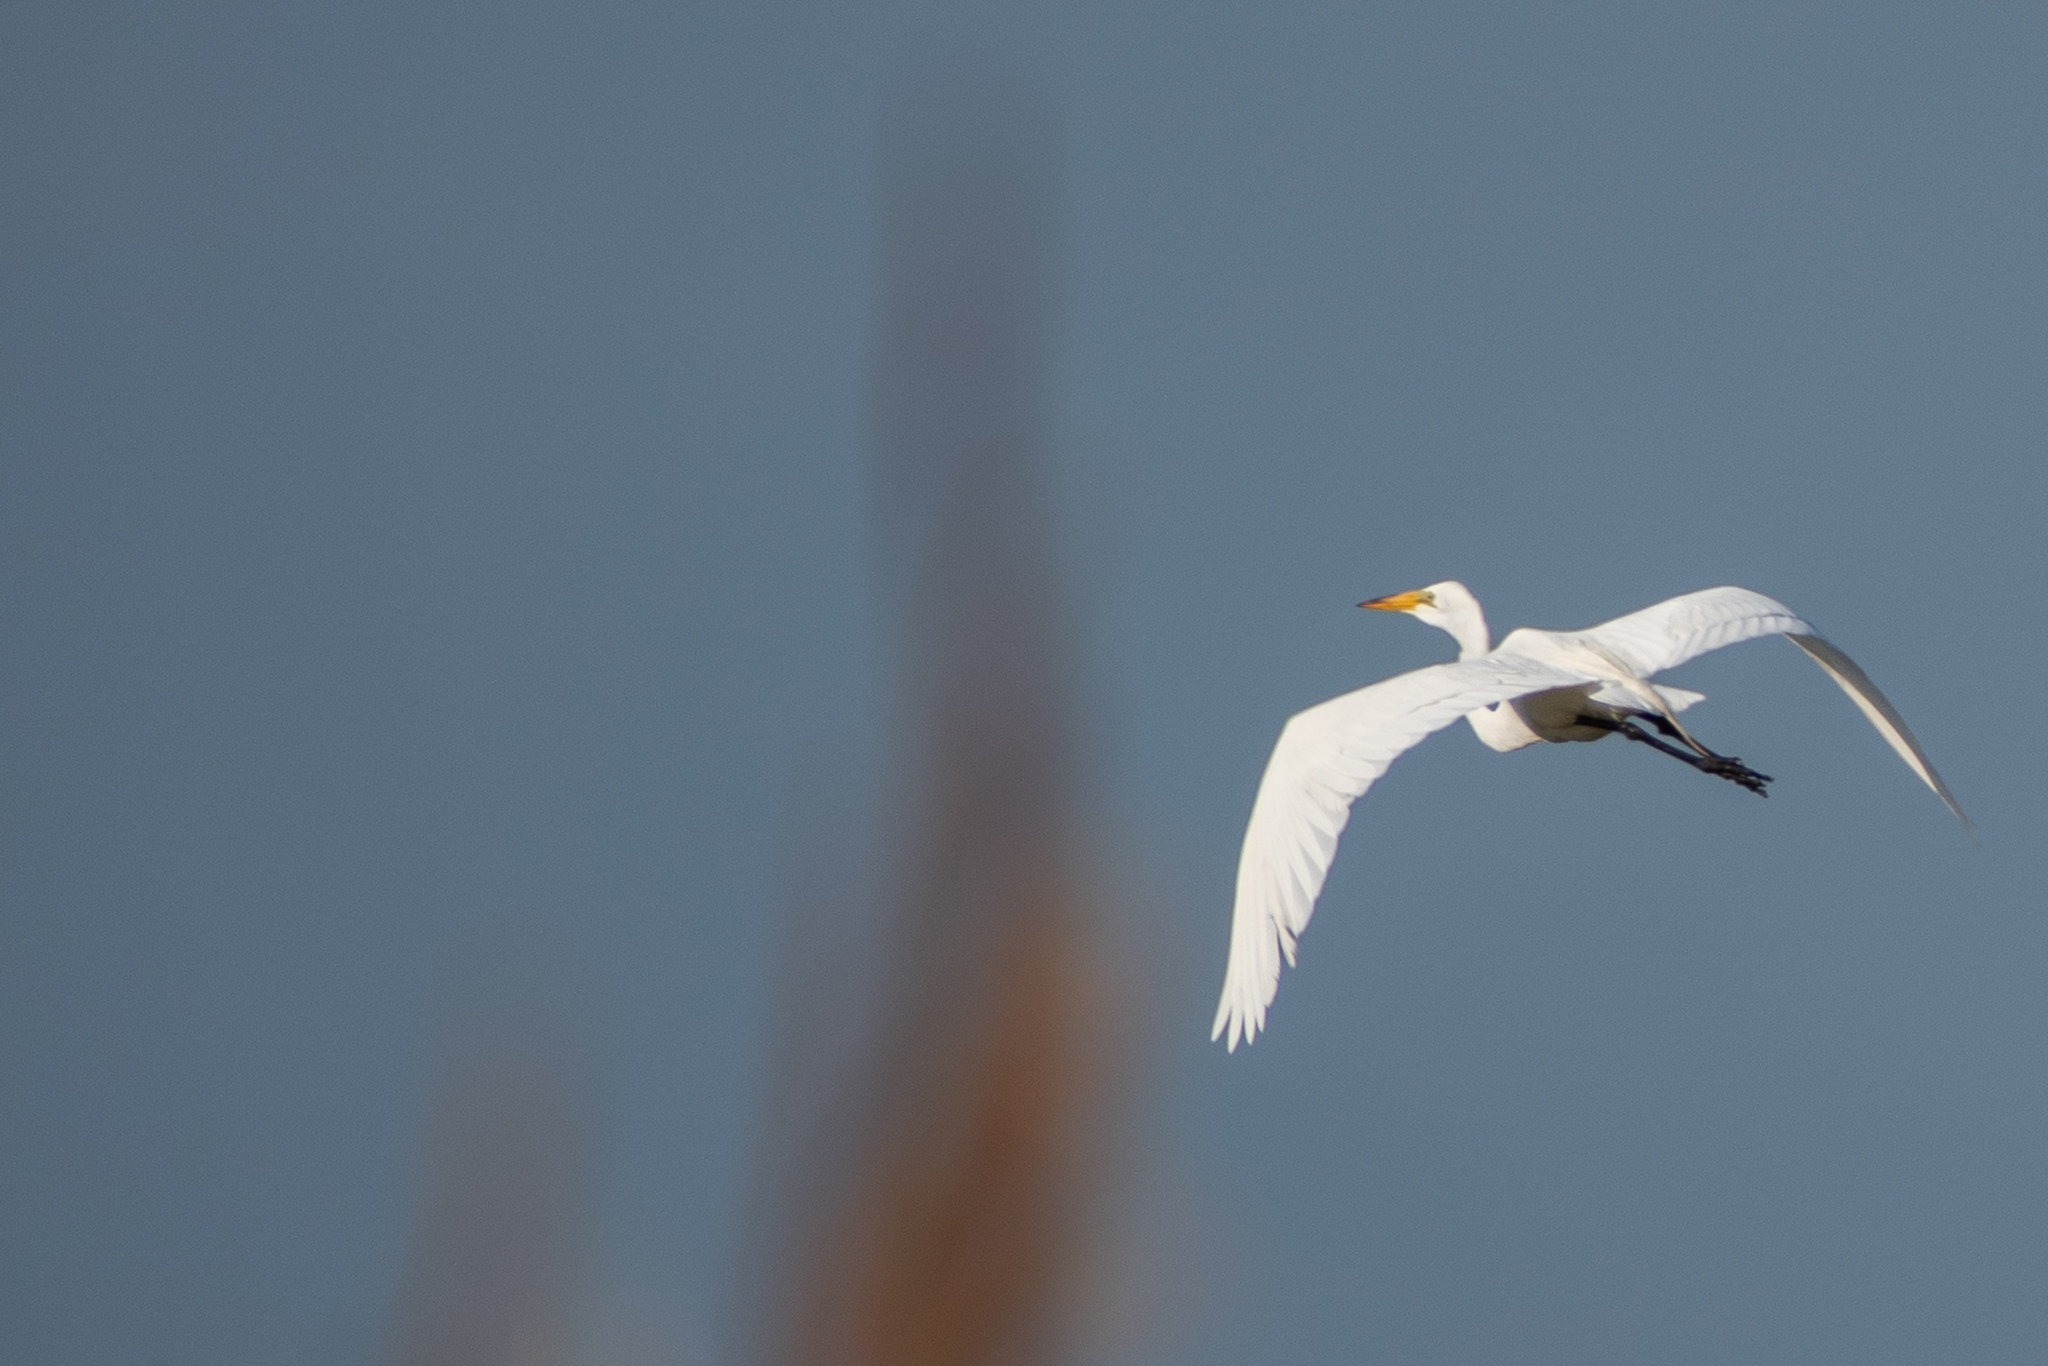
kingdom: Animalia
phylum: Chordata
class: Aves
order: Pelecaniformes
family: Ardeidae
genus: Ardea
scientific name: Ardea alba
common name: Great egret
